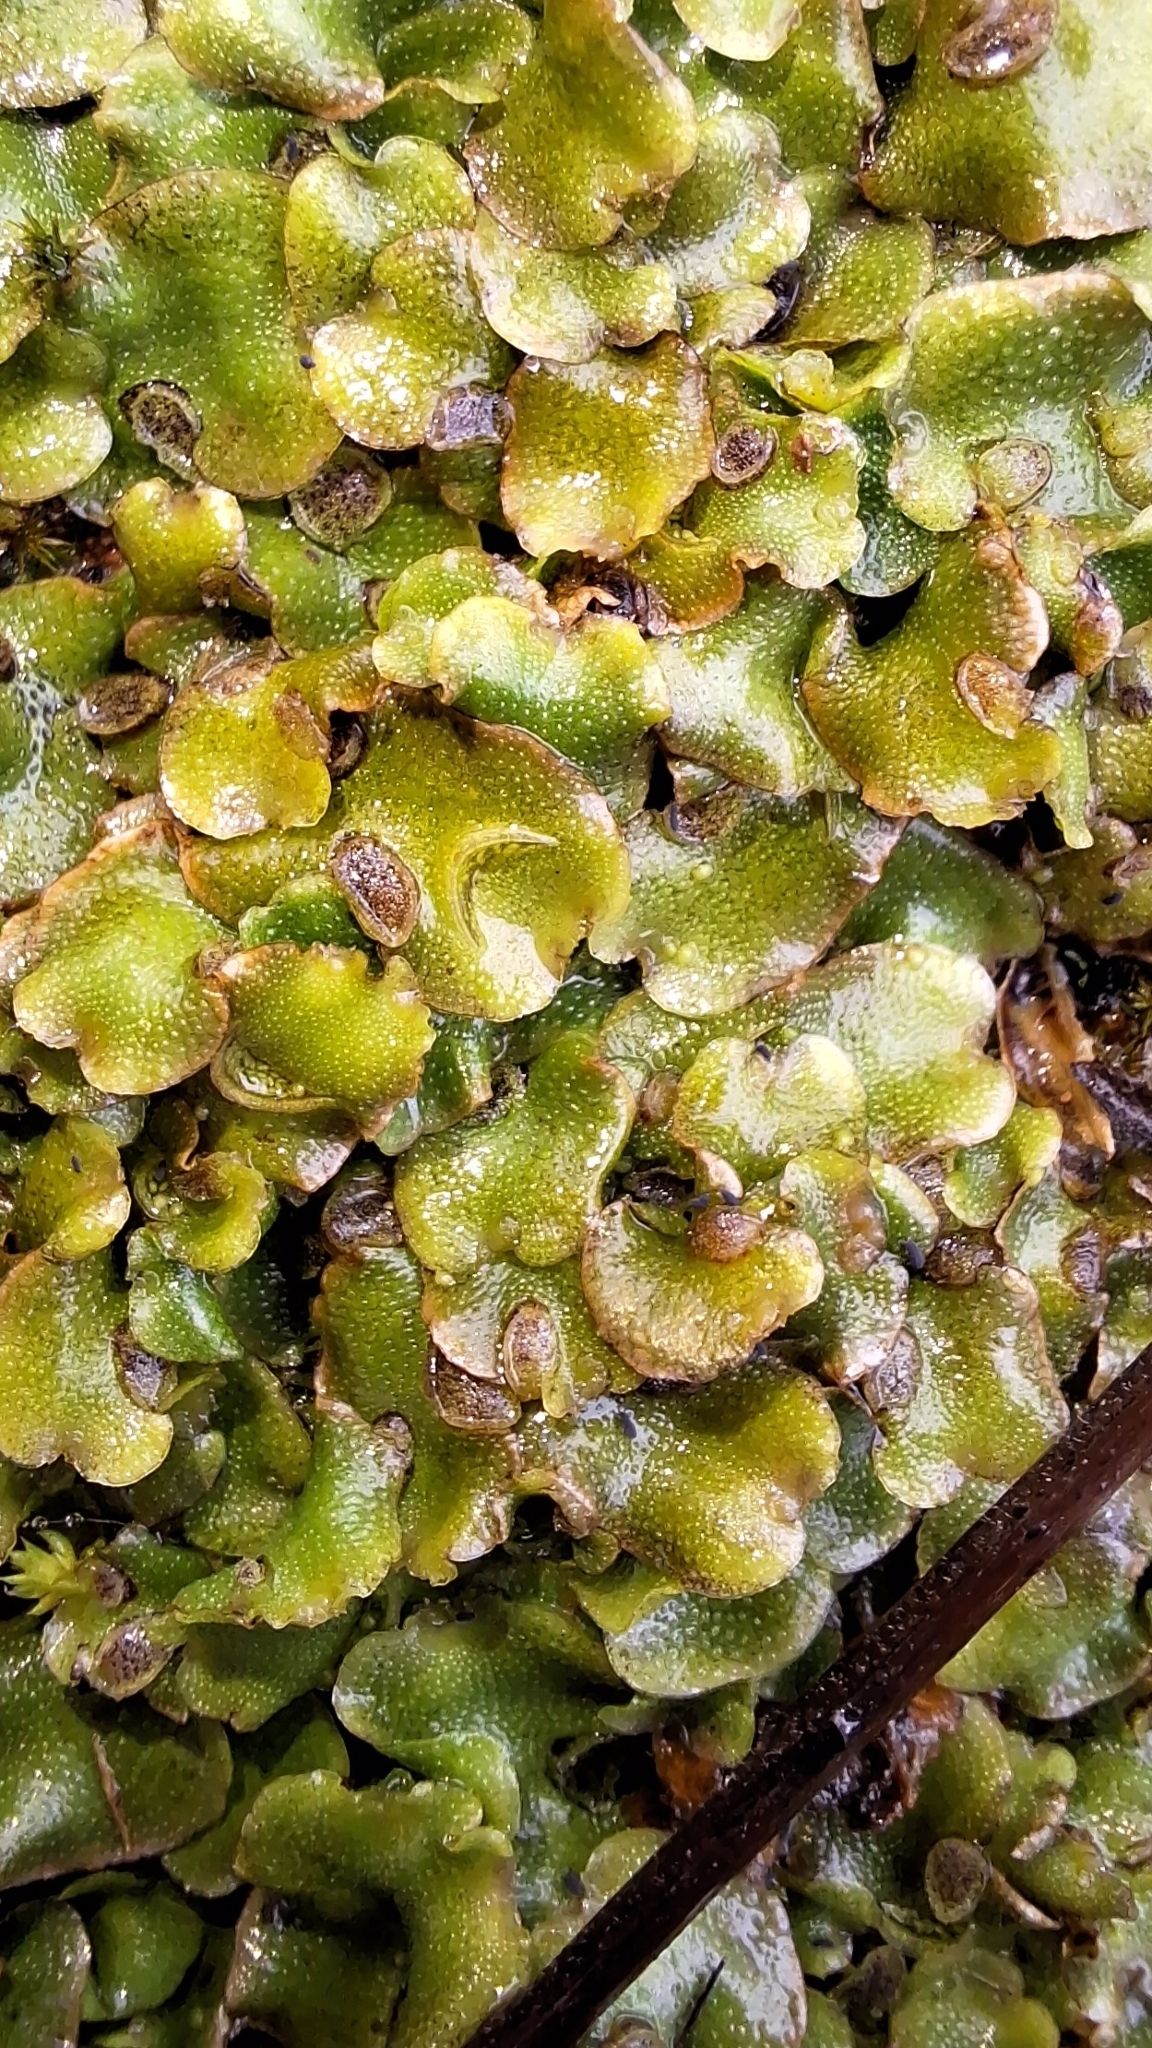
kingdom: Plantae
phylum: Marchantiophyta
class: Marchantiopsida
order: Lunulariales
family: Lunulariaceae
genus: Lunularia
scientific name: Lunularia cruciata
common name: Crescent-cup liverwort
